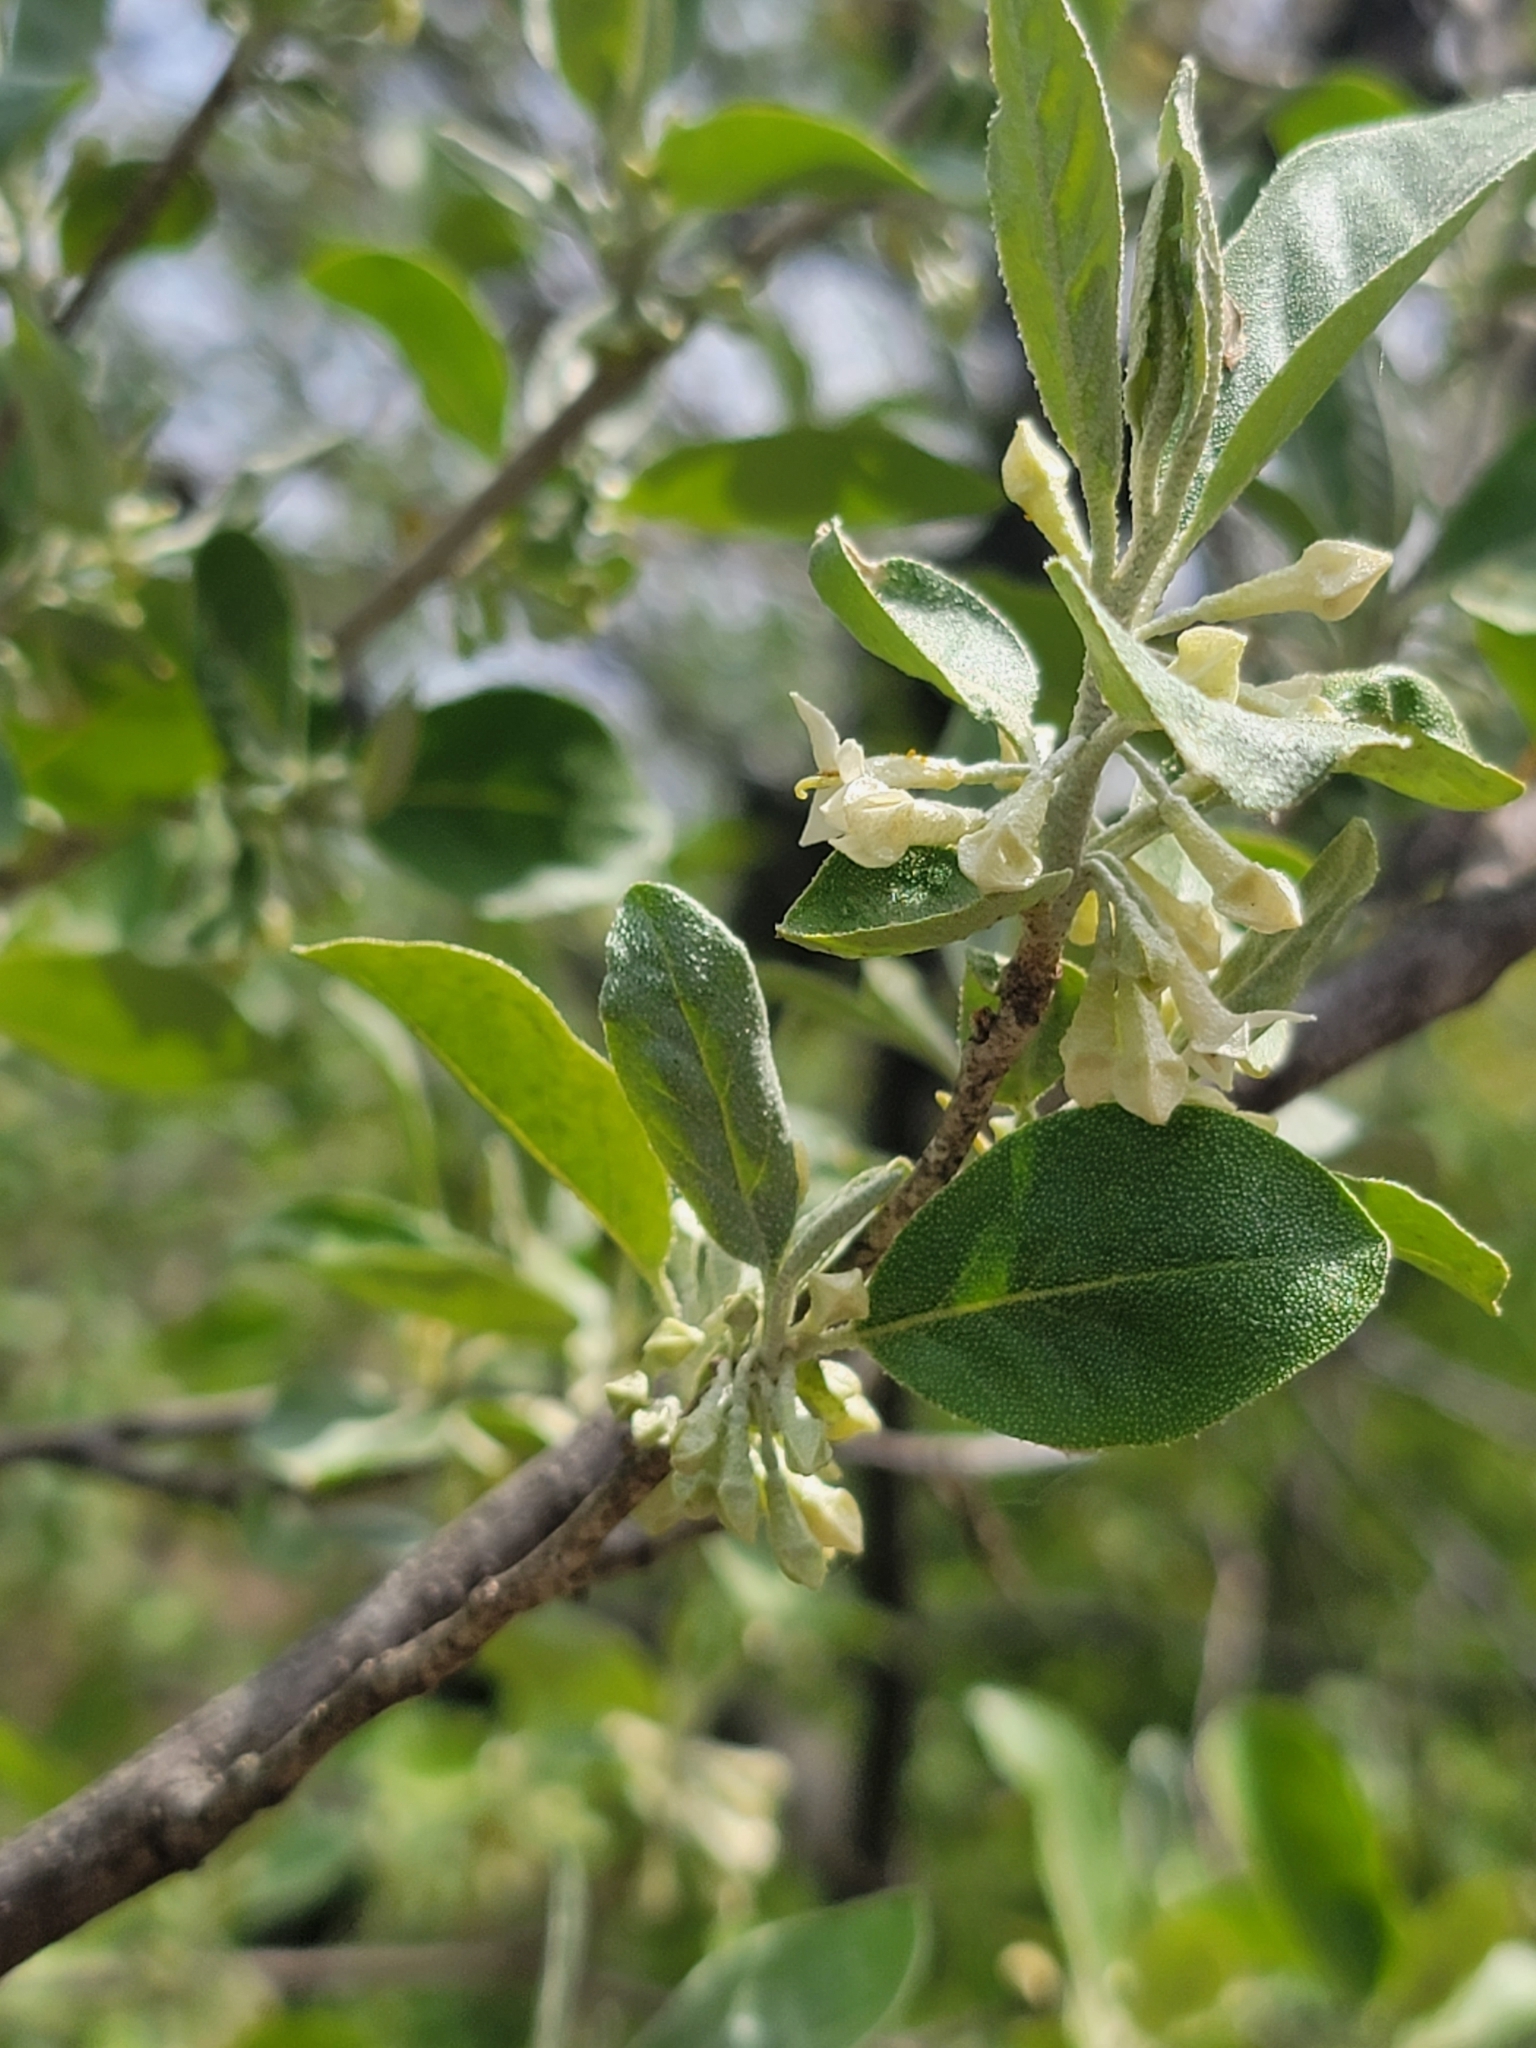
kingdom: Plantae
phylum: Tracheophyta
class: Magnoliopsida
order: Rosales
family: Elaeagnaceae
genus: Elaeagnus
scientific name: Elaeagnus umbellata
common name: Autumn olive
